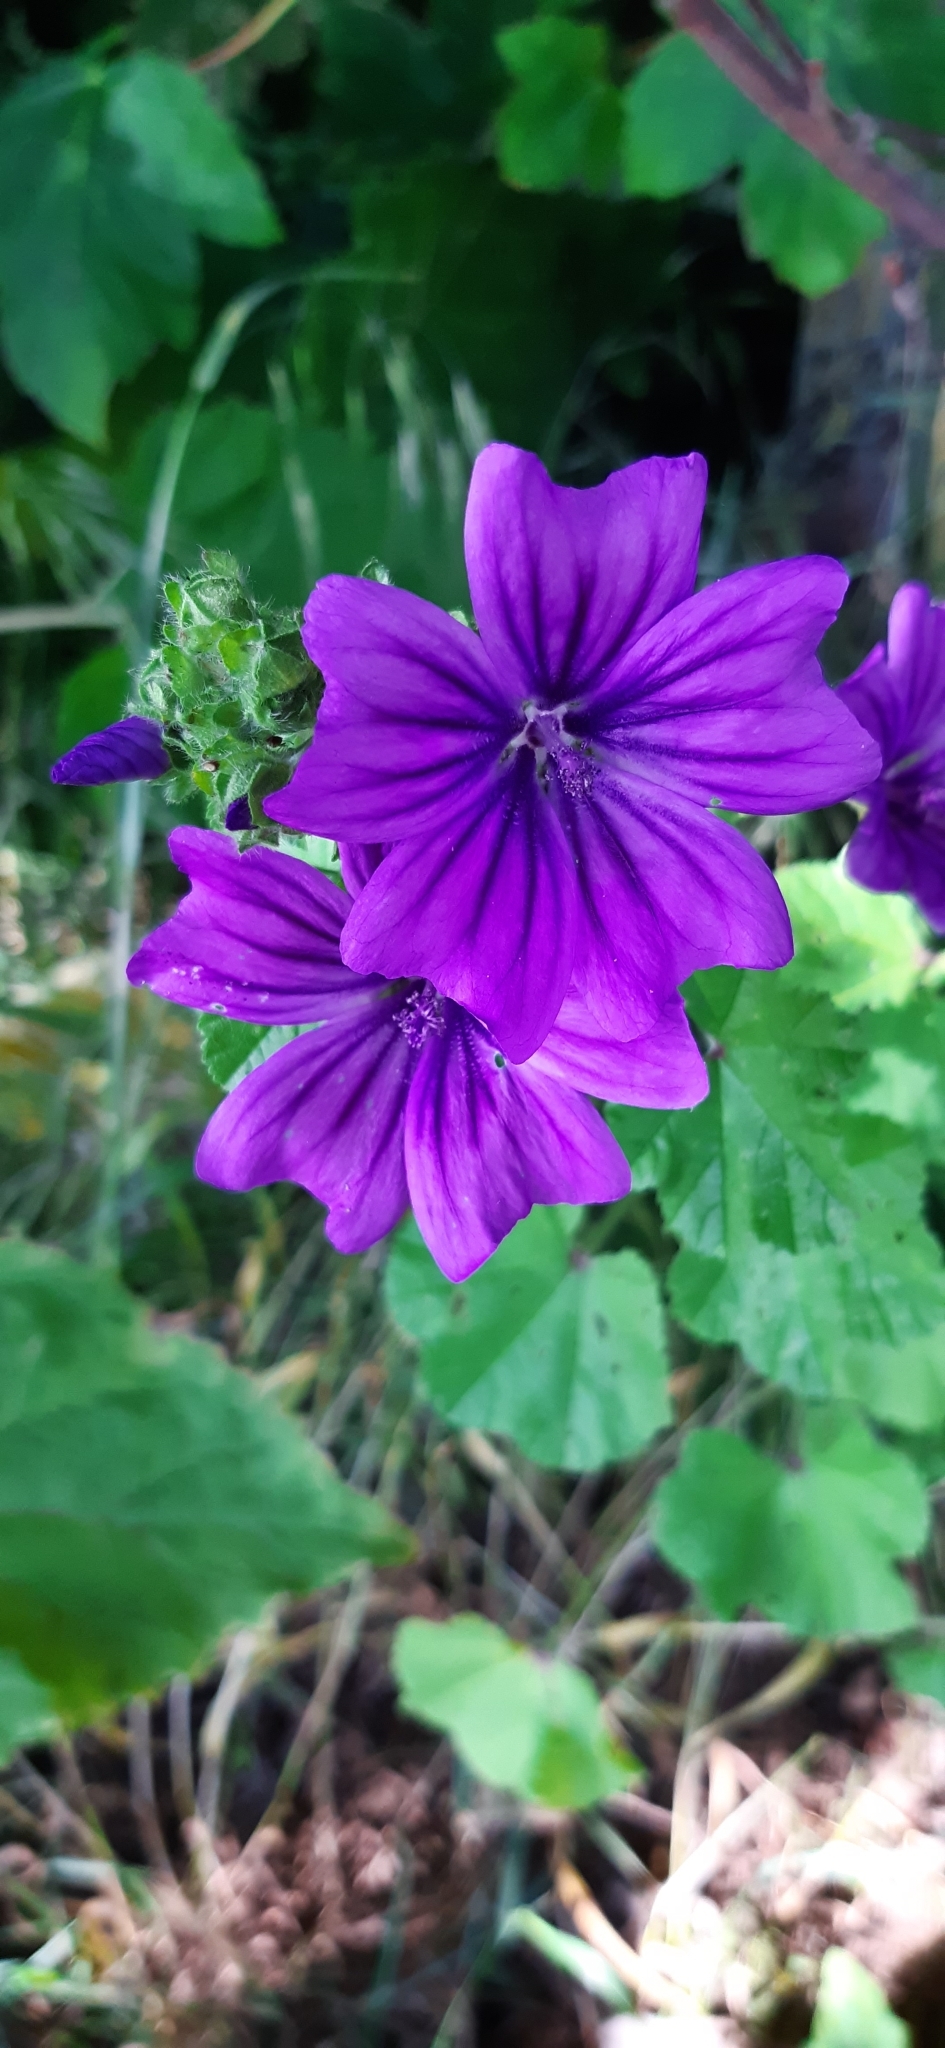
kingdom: Plantae
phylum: Tracheophyta
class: Magnoliopsida
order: Malvales
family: Malvaceae
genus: Malva
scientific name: Malva sylvestris
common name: Common mallow
